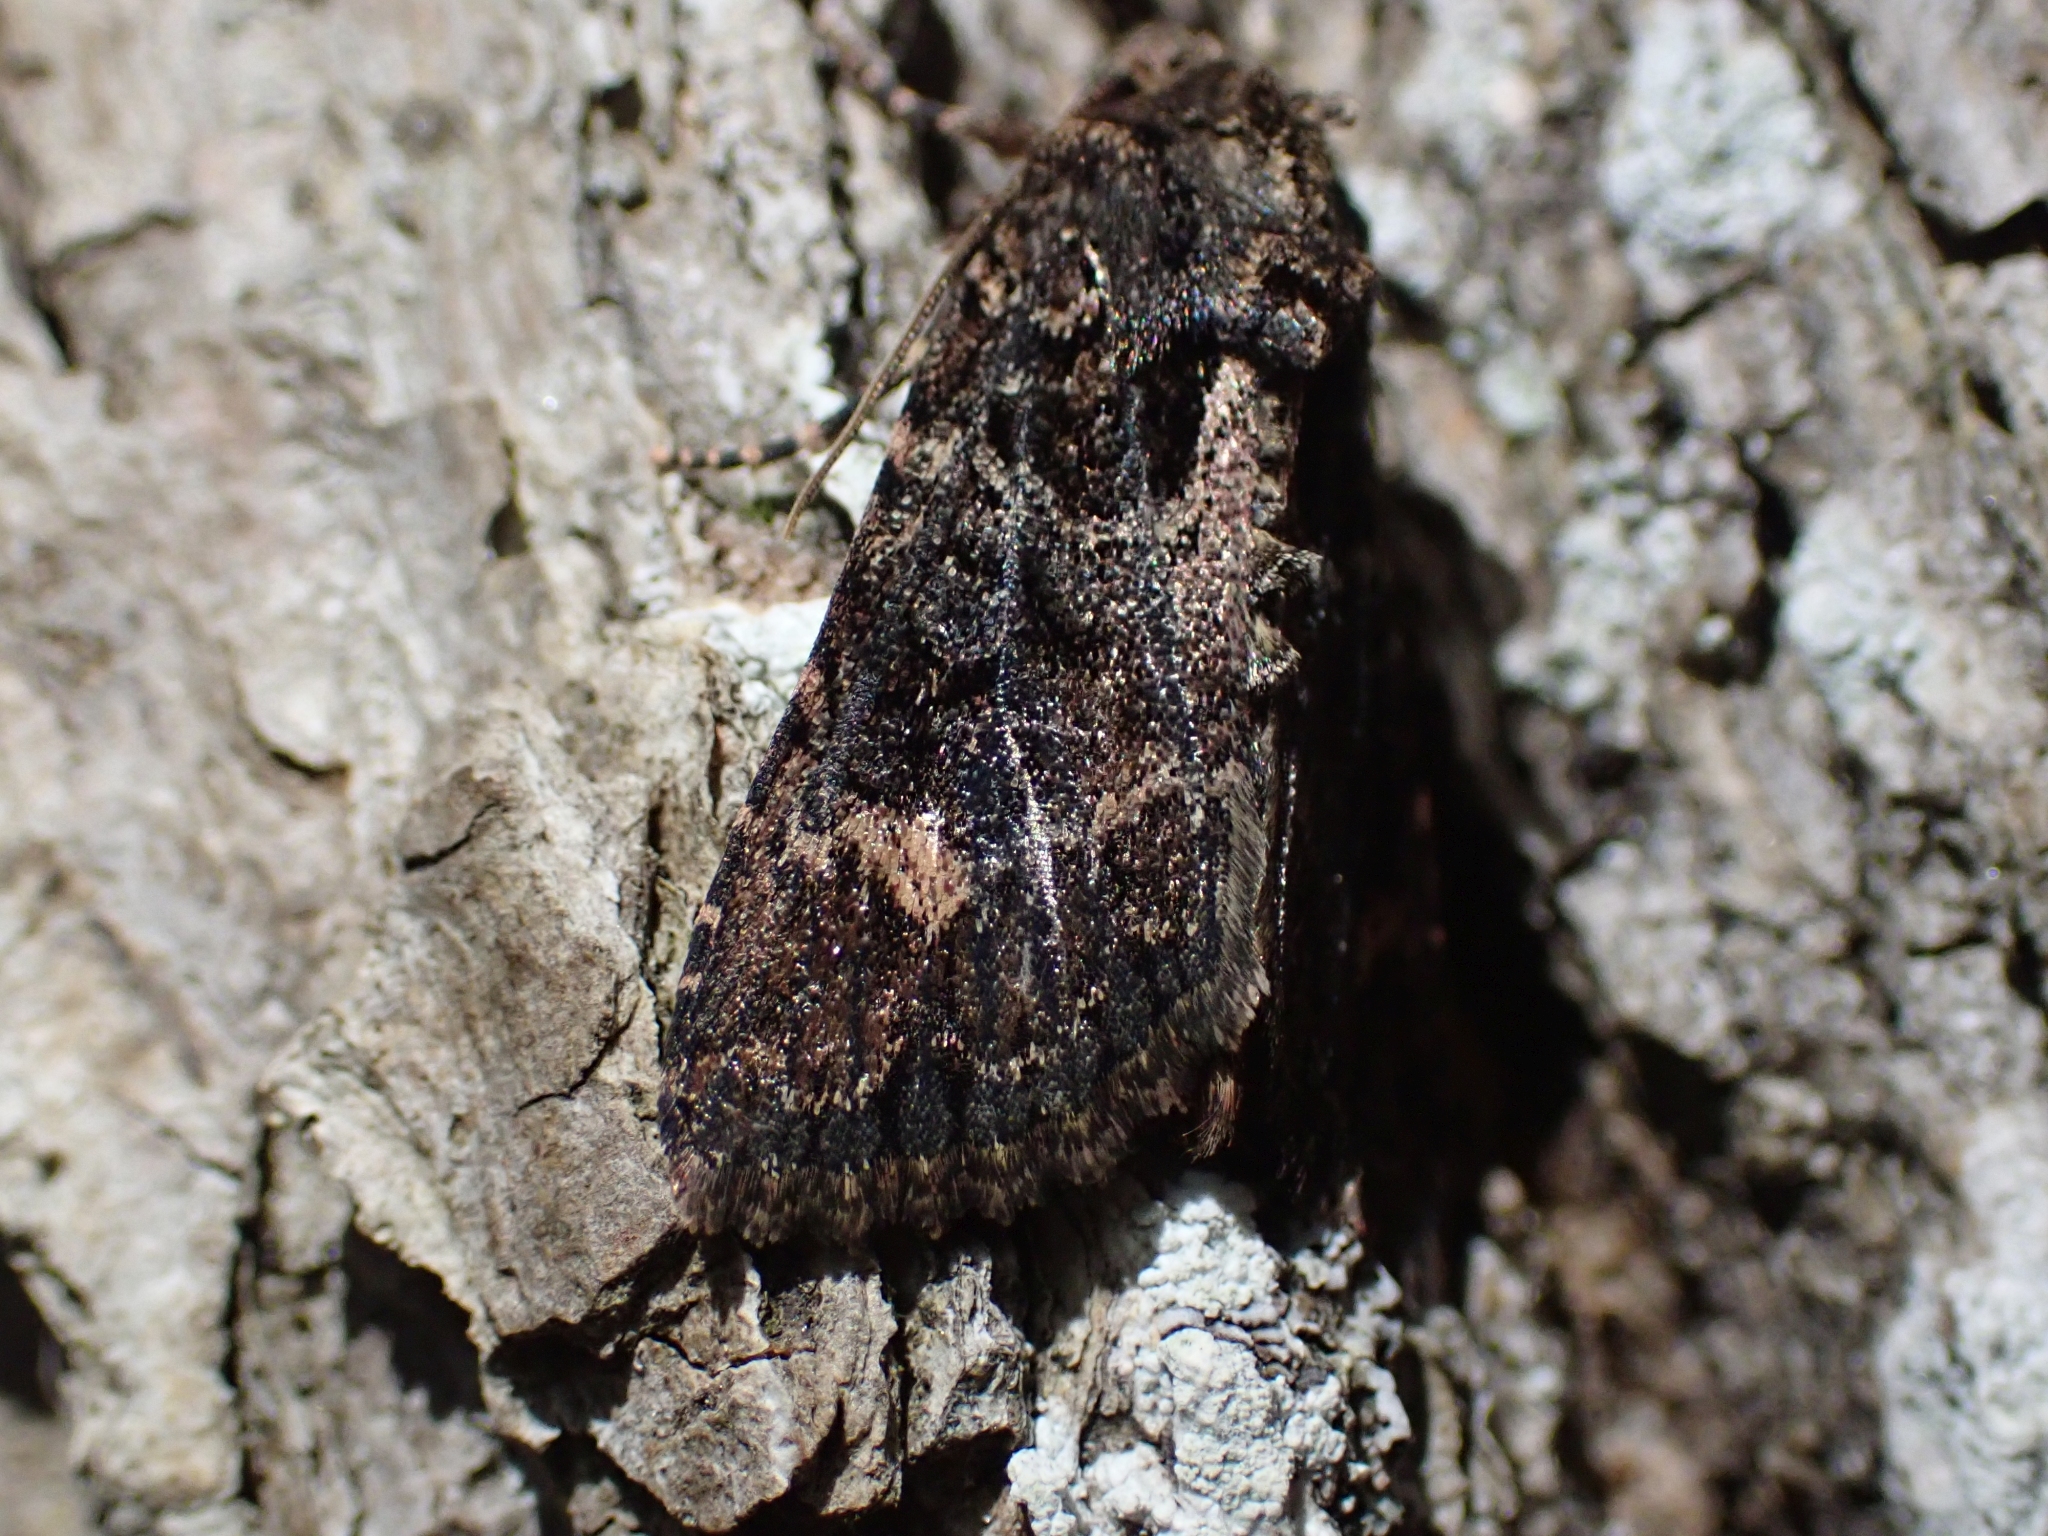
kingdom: Animalia
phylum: Arthropoda
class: Insecta
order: Lepidoptera
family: Noctuidae
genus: Aseptis
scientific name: Aseptis binotata
